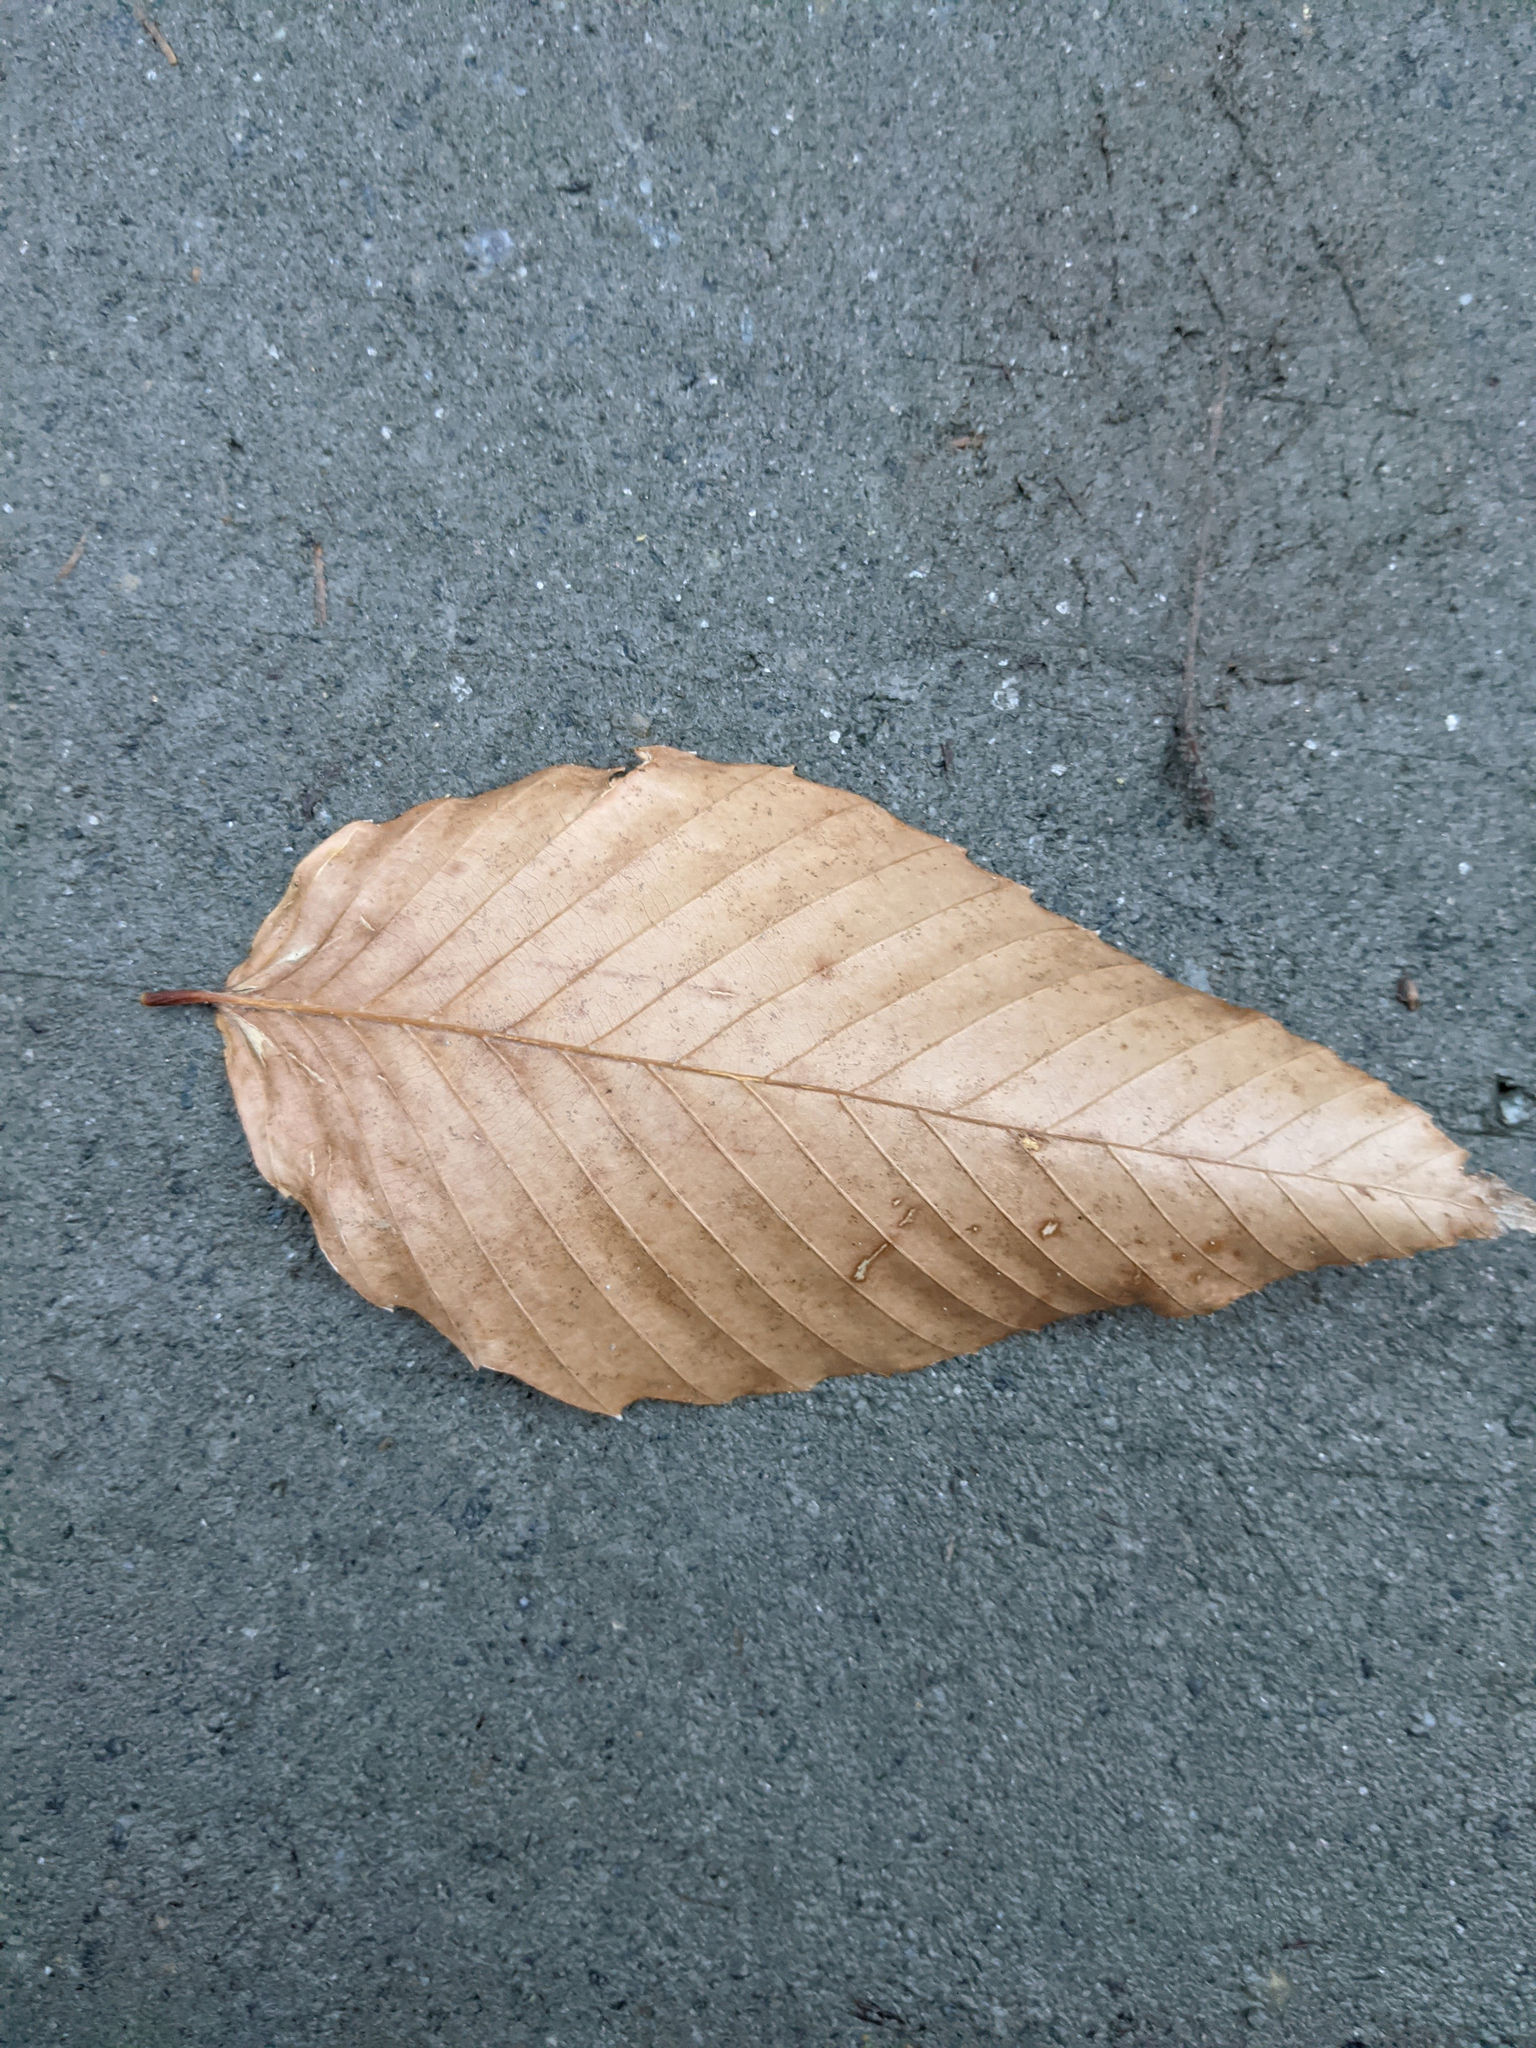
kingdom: Plantae
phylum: Tracheophyta
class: Magnoliopsida
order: Fagales
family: Fagaceae
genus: Fagus
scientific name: Fagus grandifolia
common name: American beech
